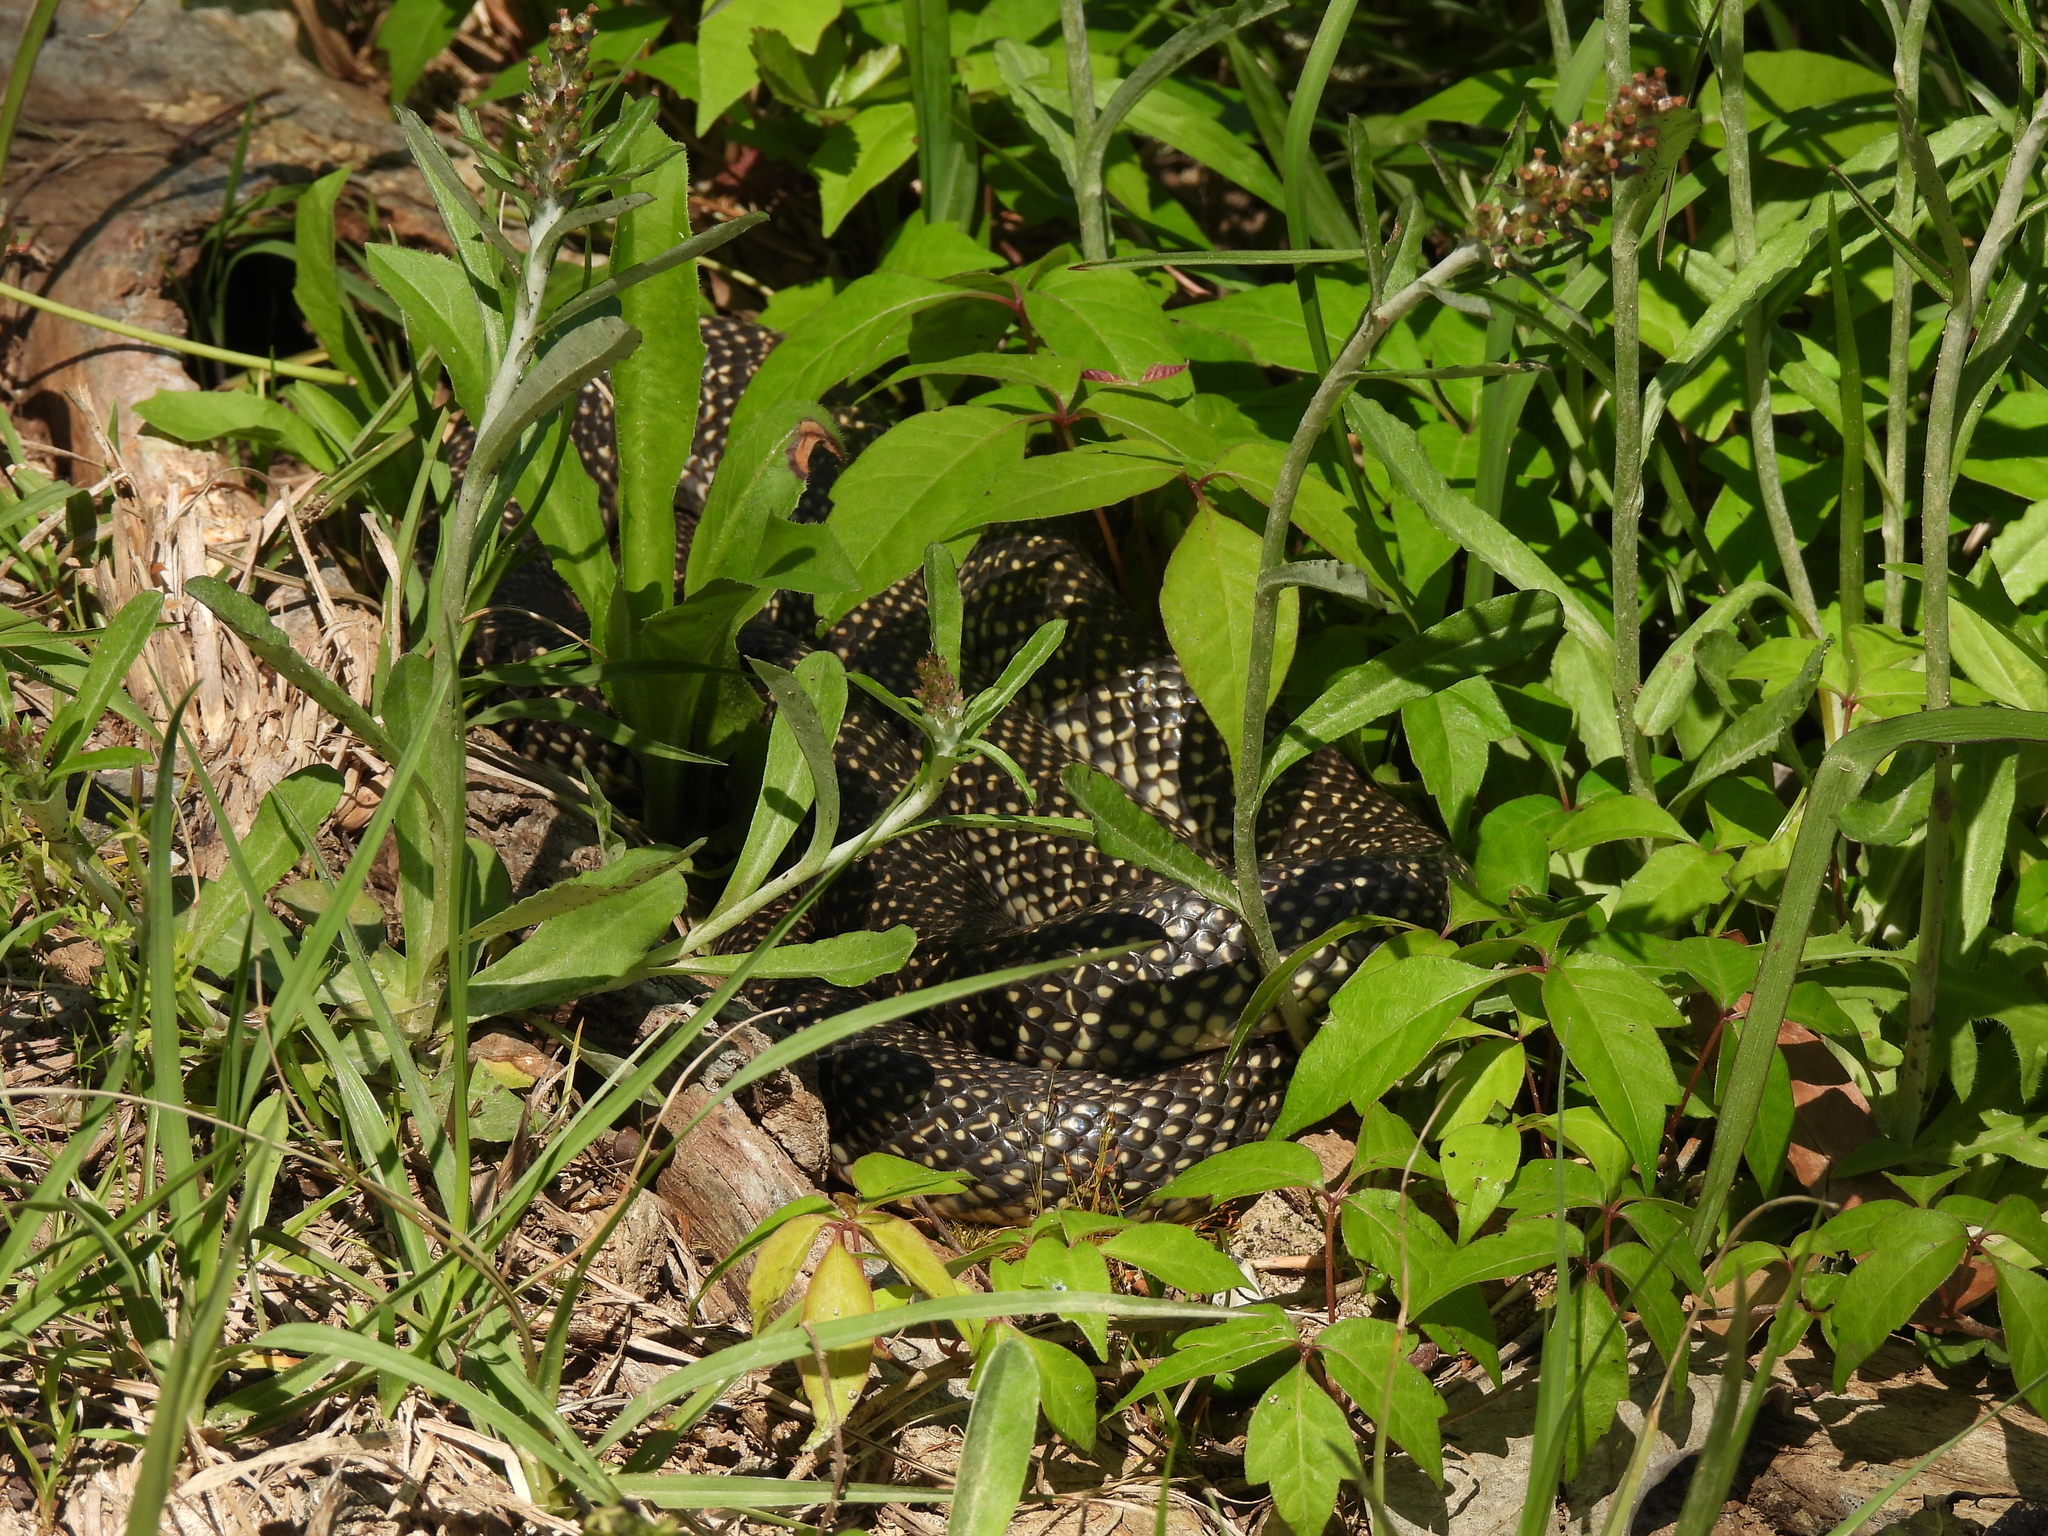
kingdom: Animalia
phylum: Chordata
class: Squamata
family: Colubridae
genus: Lampropeltis
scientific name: Lampropeltis holbrooki
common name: Speckled kingsnake
